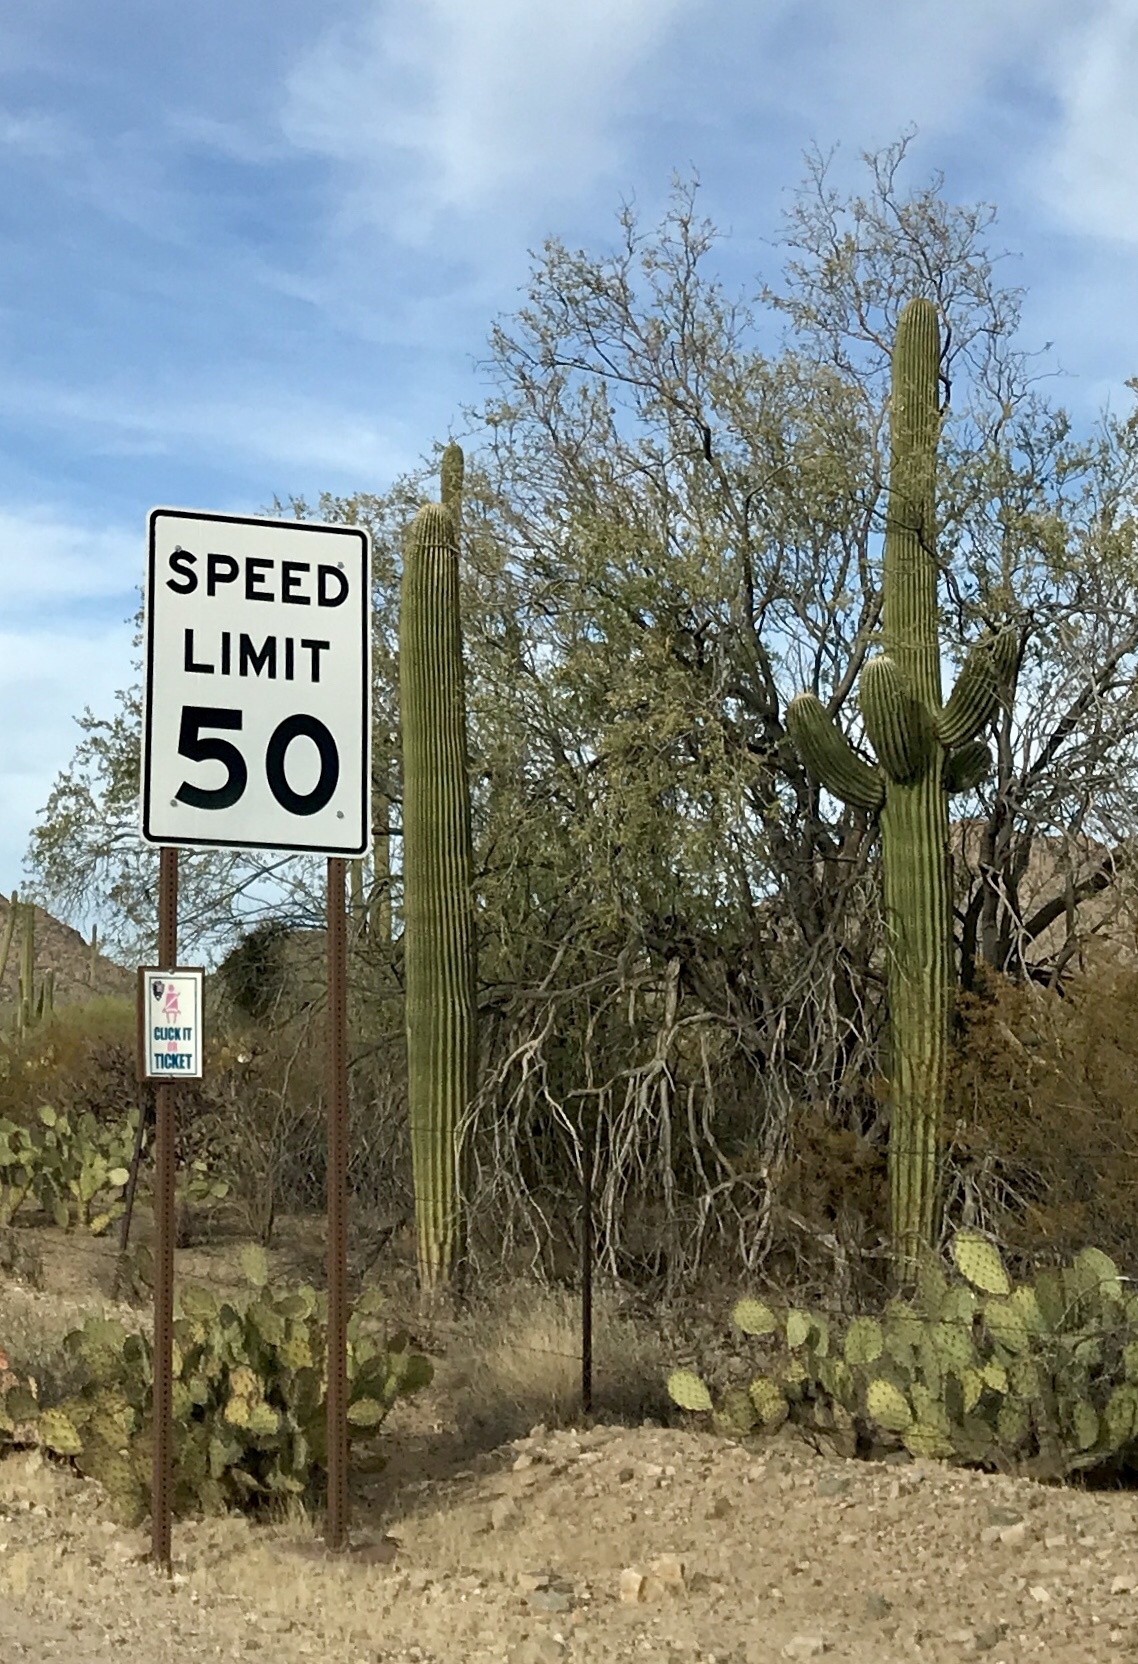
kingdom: Plantae
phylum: Tracheophyta
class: Magnoliopsida
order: Fabales
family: Fabaceae
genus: Olneya
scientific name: Olneya tesota
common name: Desert ironwood
